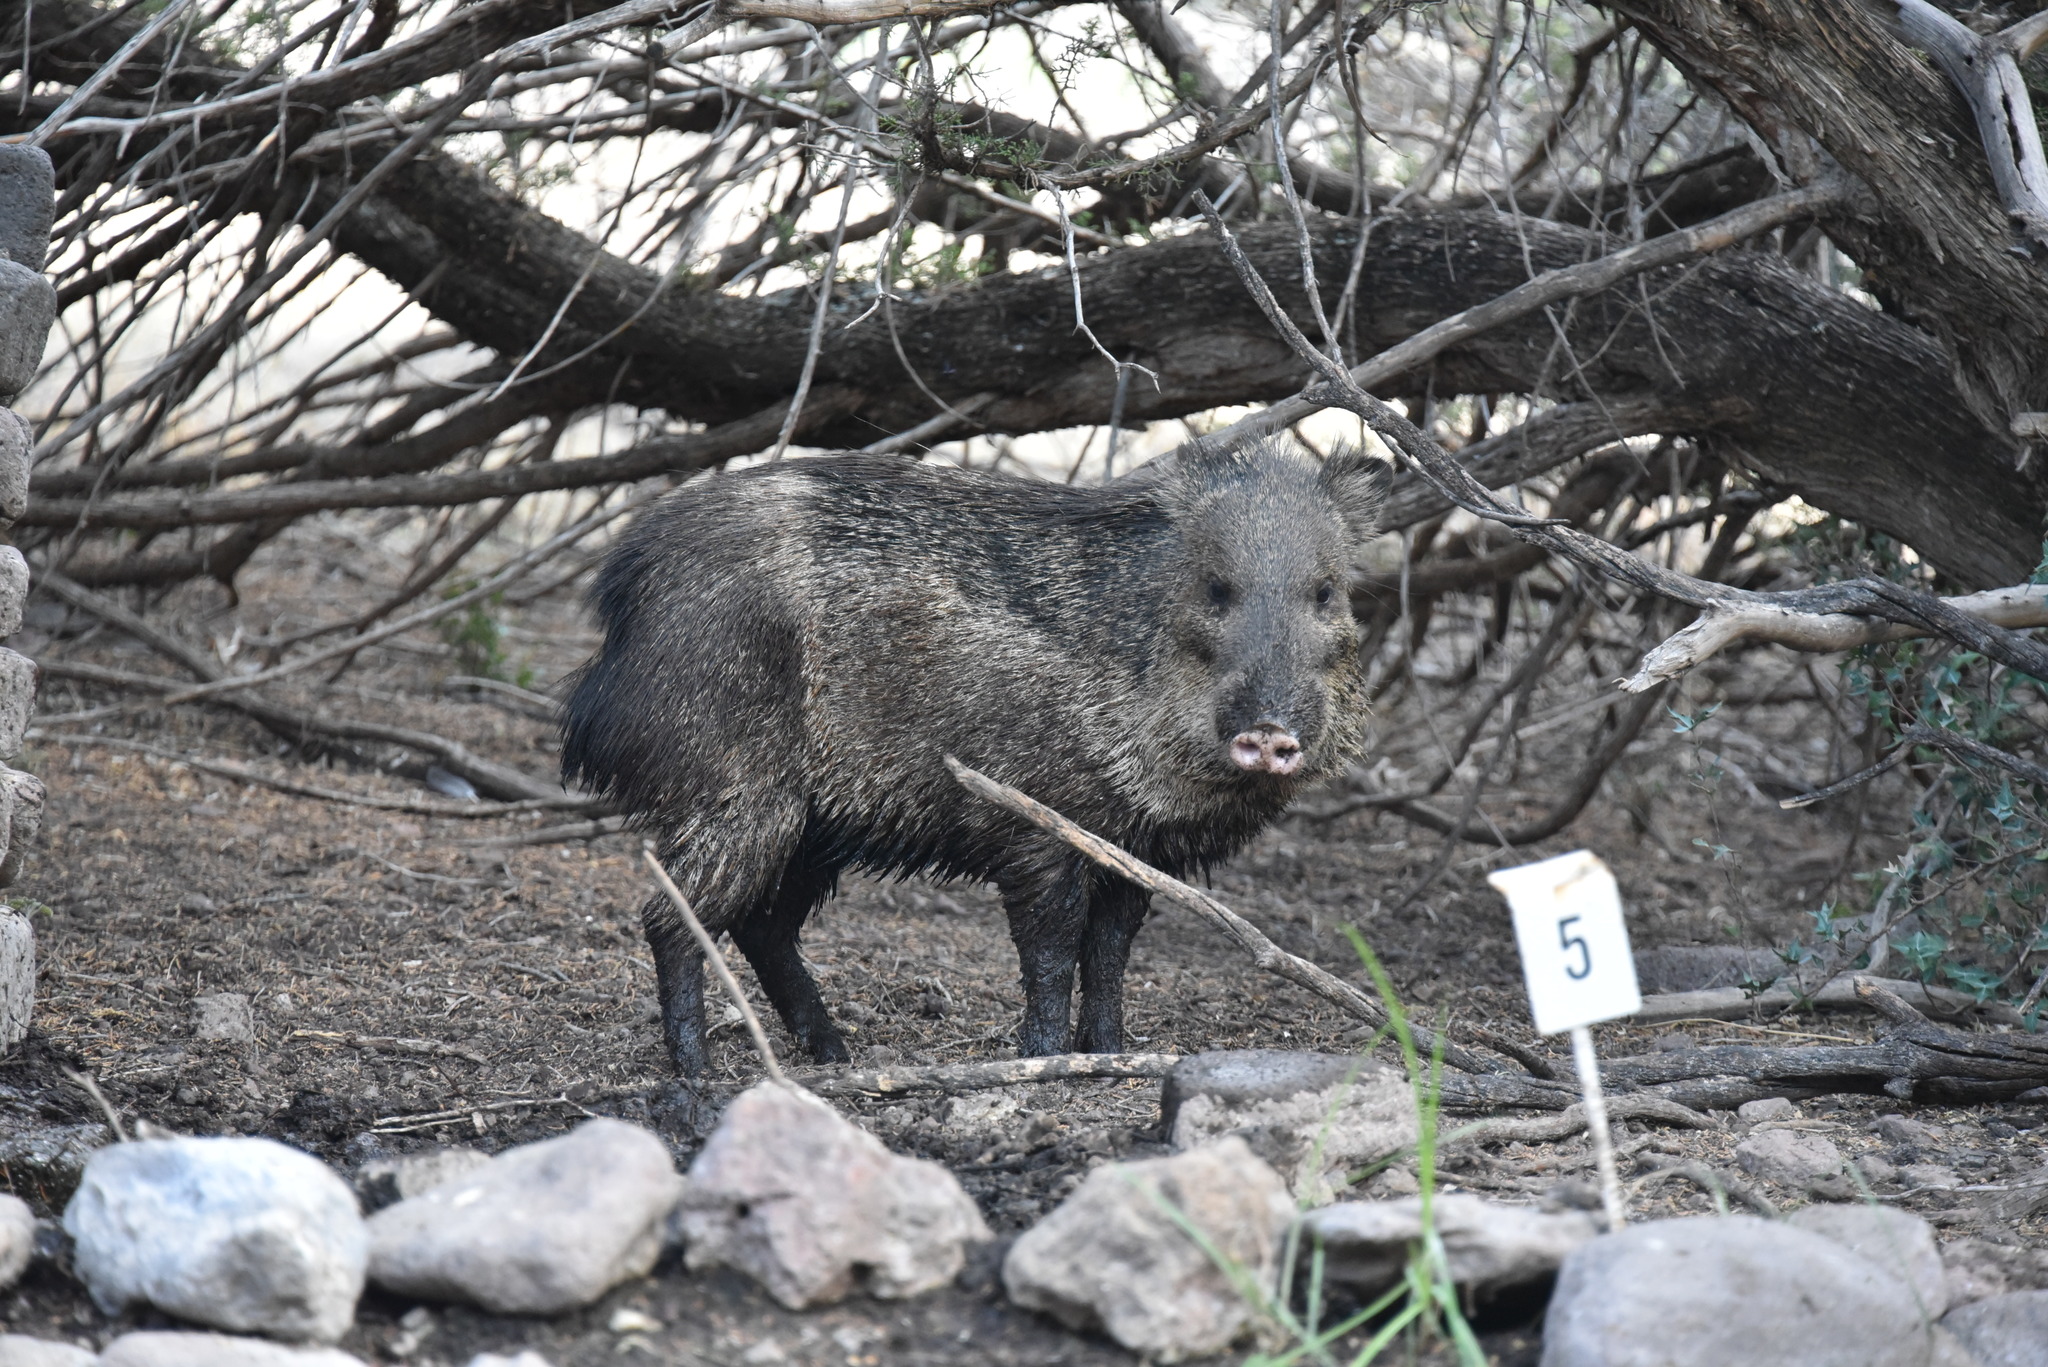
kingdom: Animalia
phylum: Chordata
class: Mammalia
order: Artiodactyla
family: Tayassuidae
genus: Pecari
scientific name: Pecari tajacu
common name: Collared peccary
